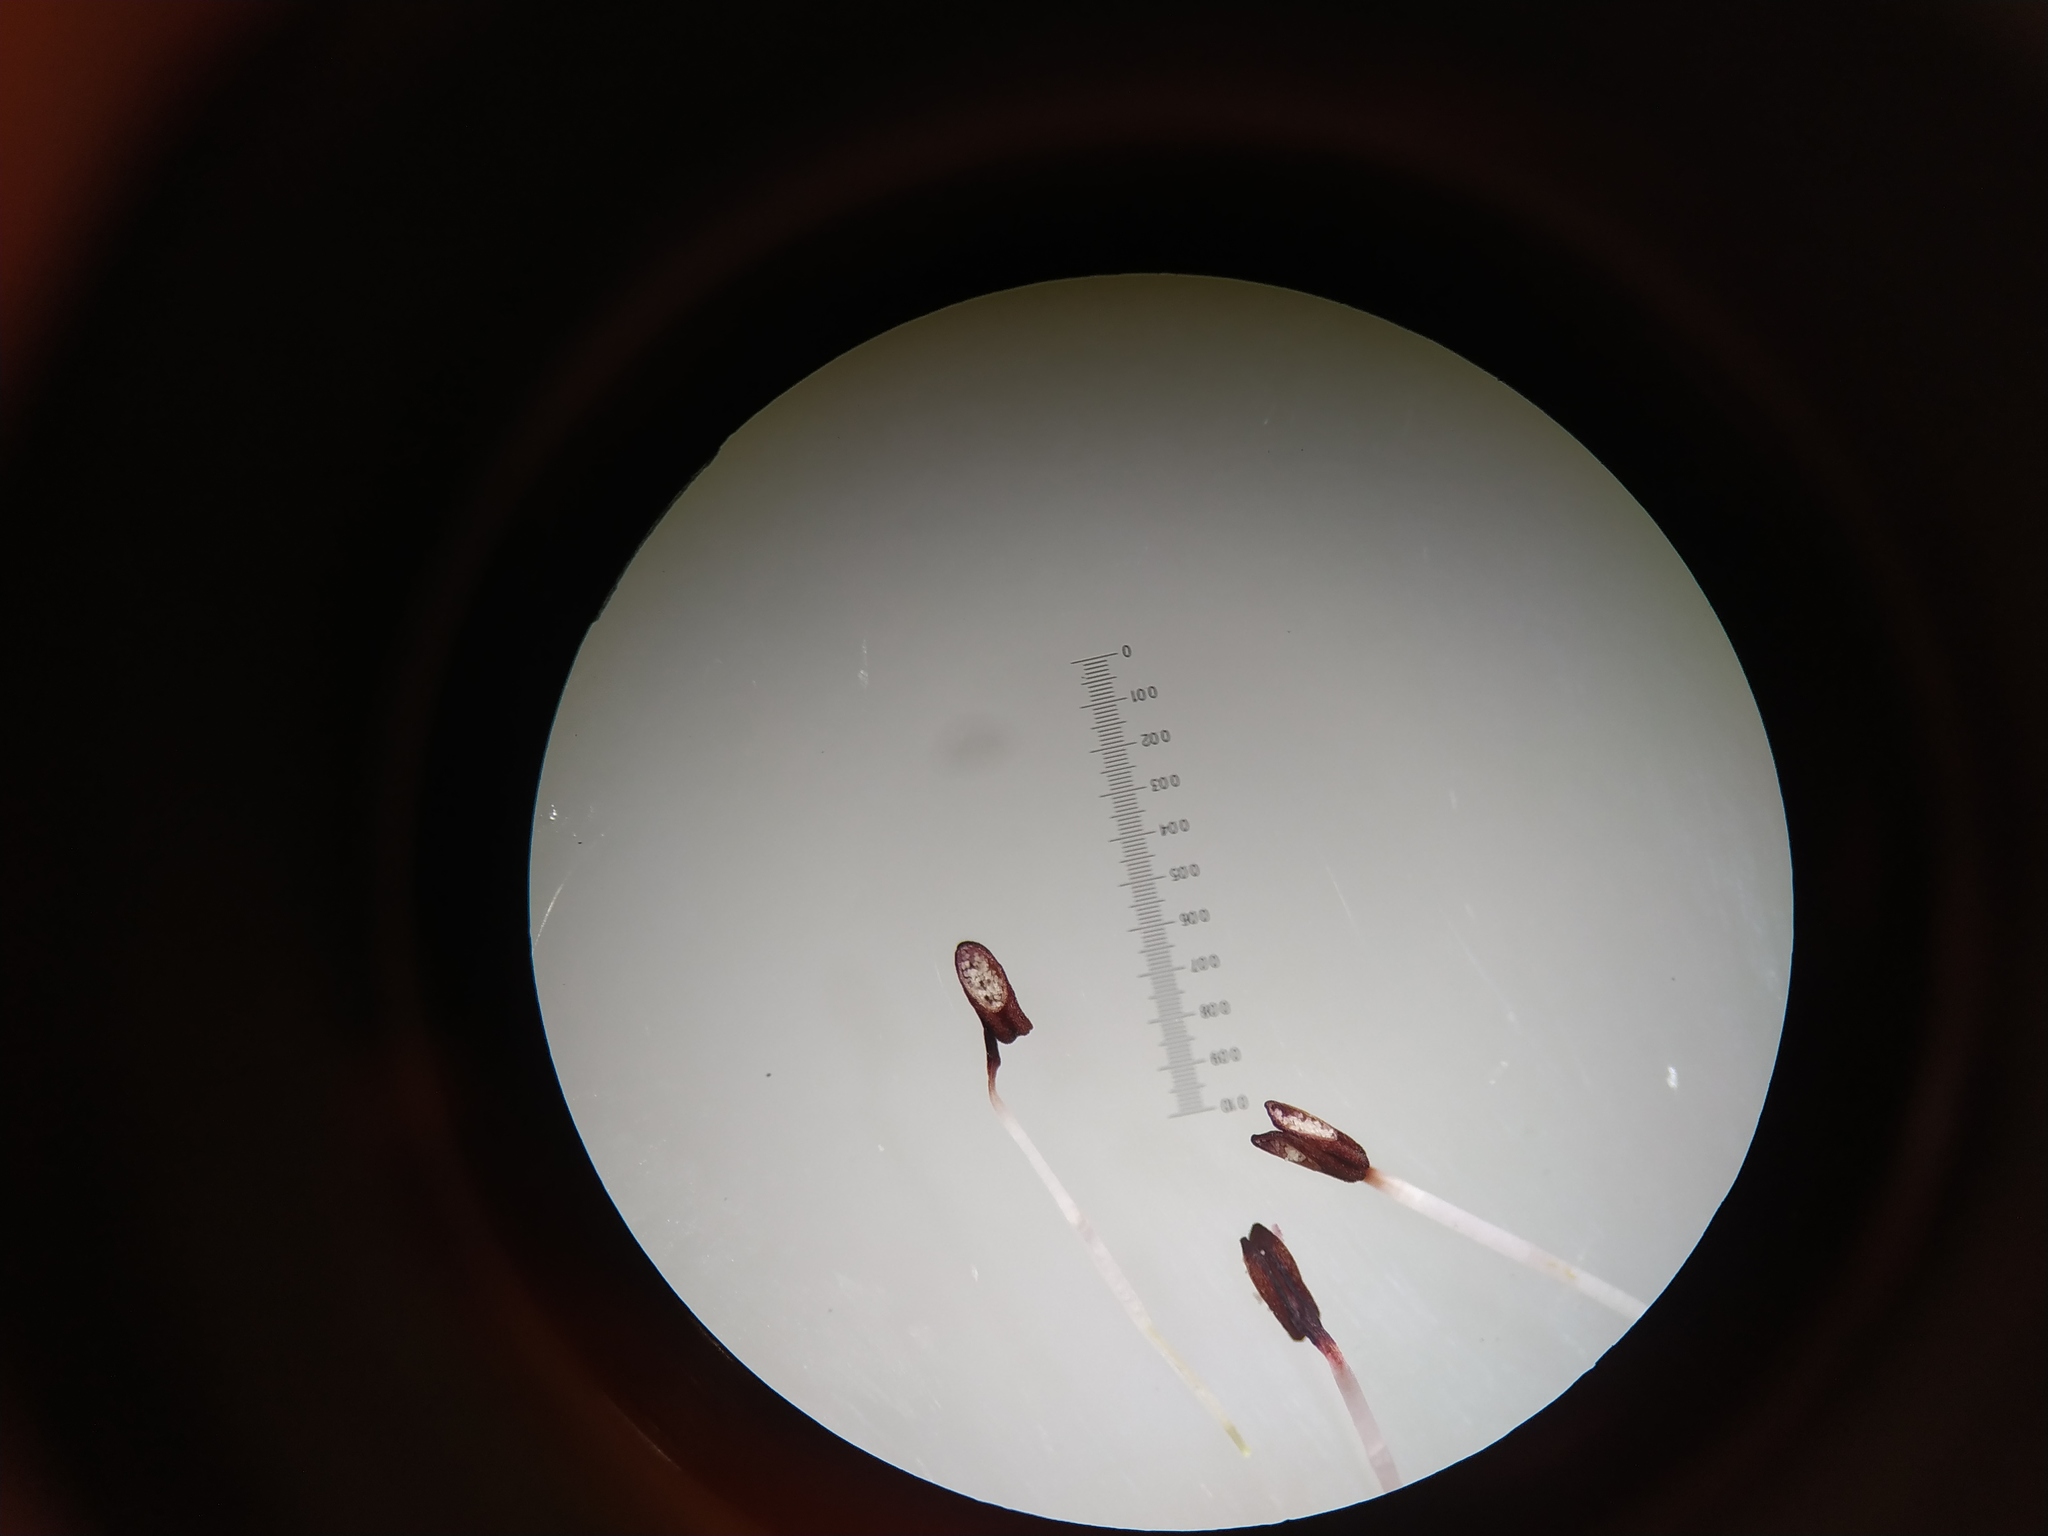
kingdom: Plantae
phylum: Tracheophyta
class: Magnoliopsida
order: Ericales
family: Ericaceae
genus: Erica
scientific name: Erica filamentosa
